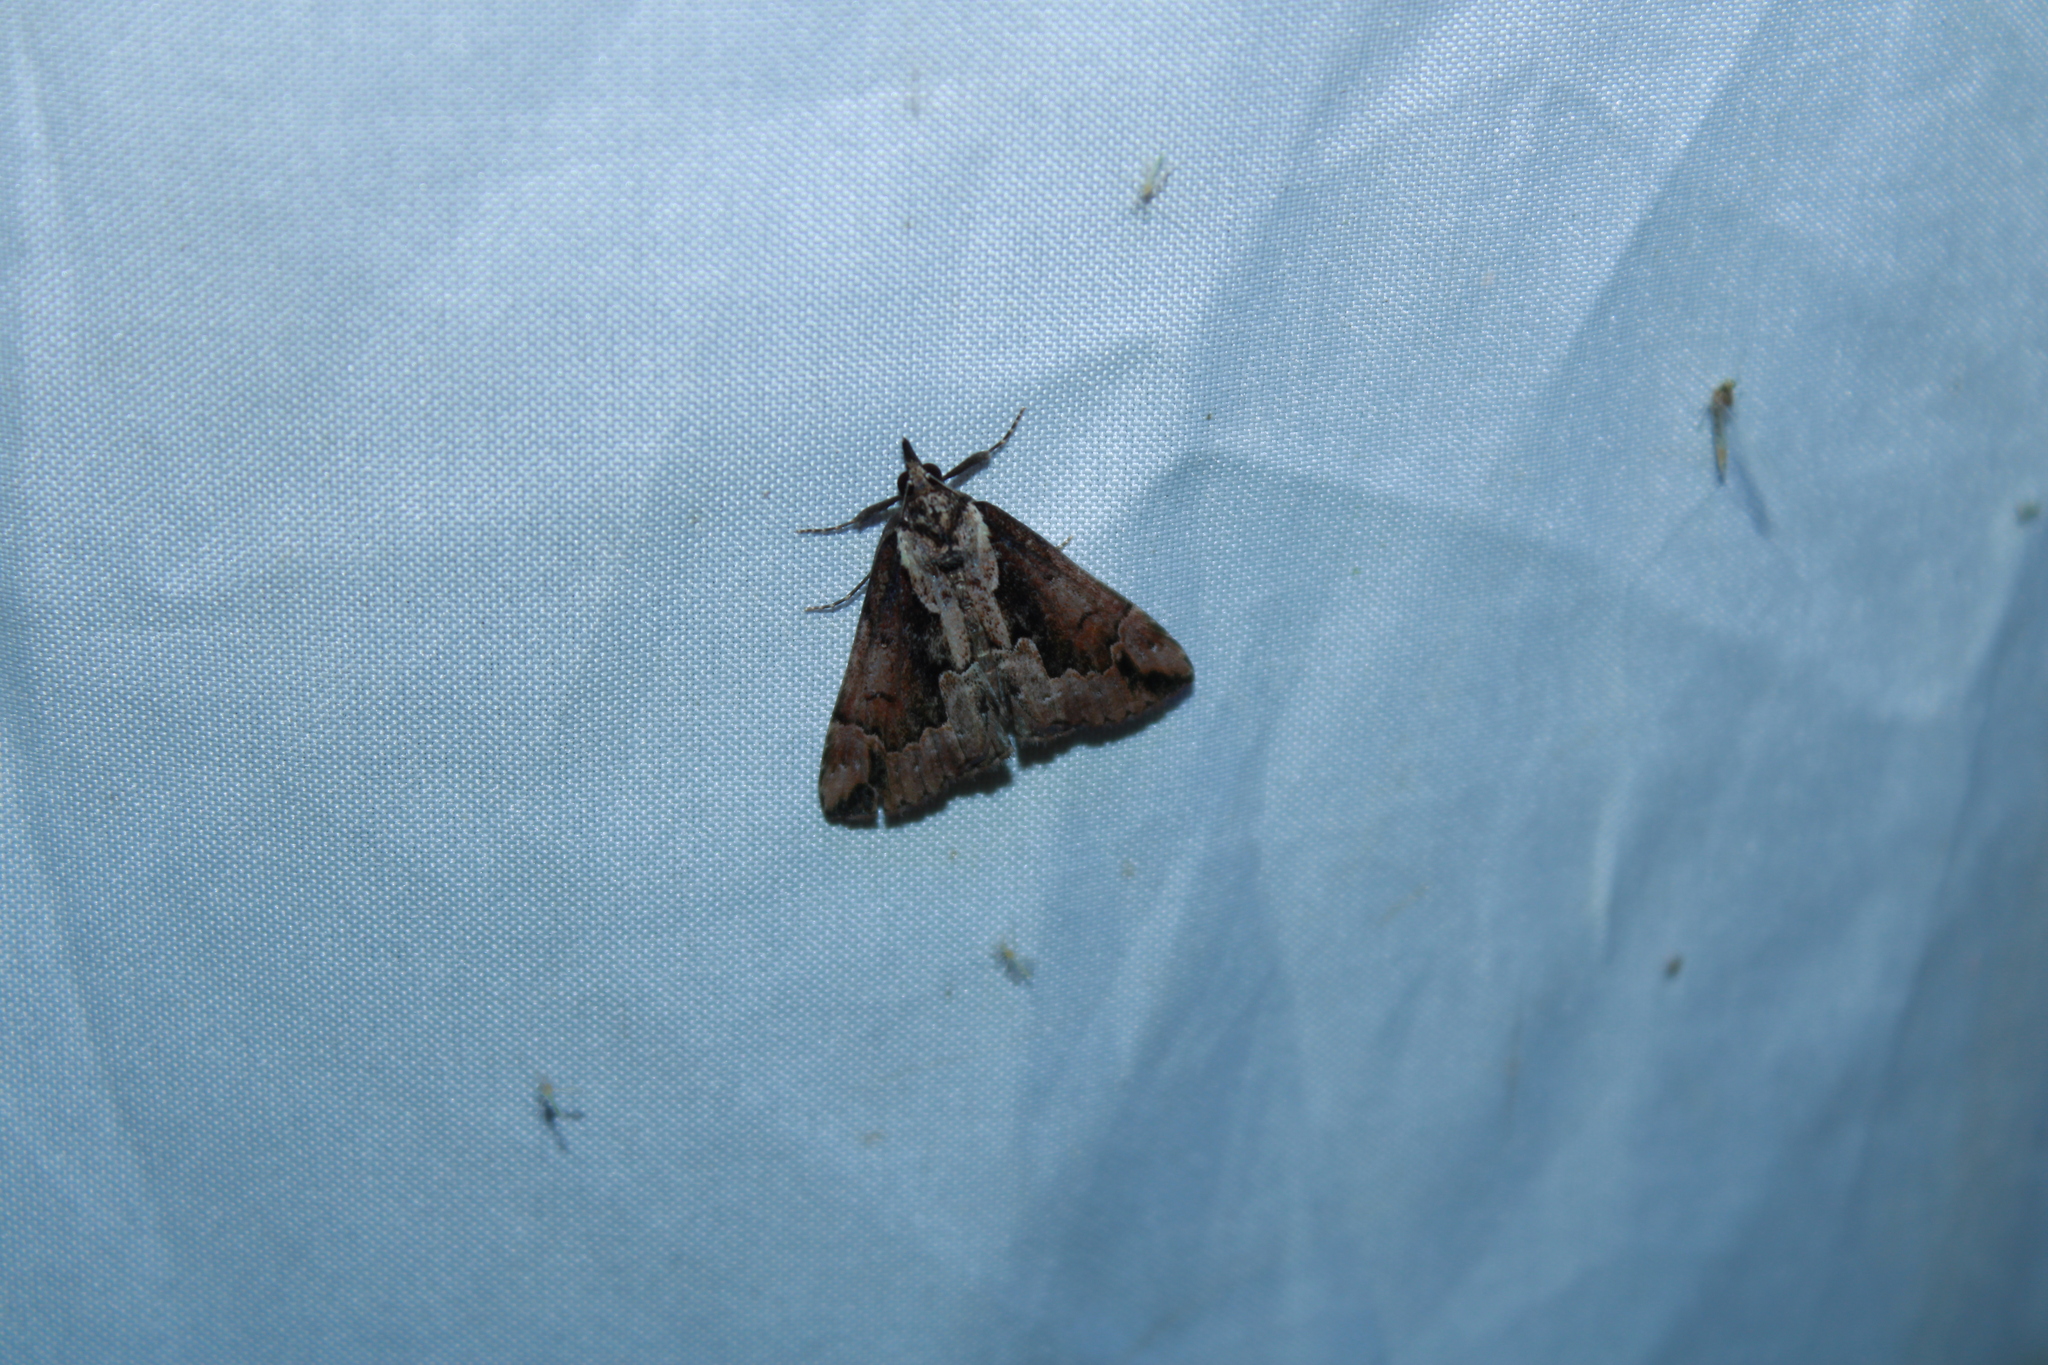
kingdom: Animalia
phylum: Arthropoda
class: Insecta
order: Lepidoptera
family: Erebidae
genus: Hypena
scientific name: Hypena baltimoralis
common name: Baltimore snout
